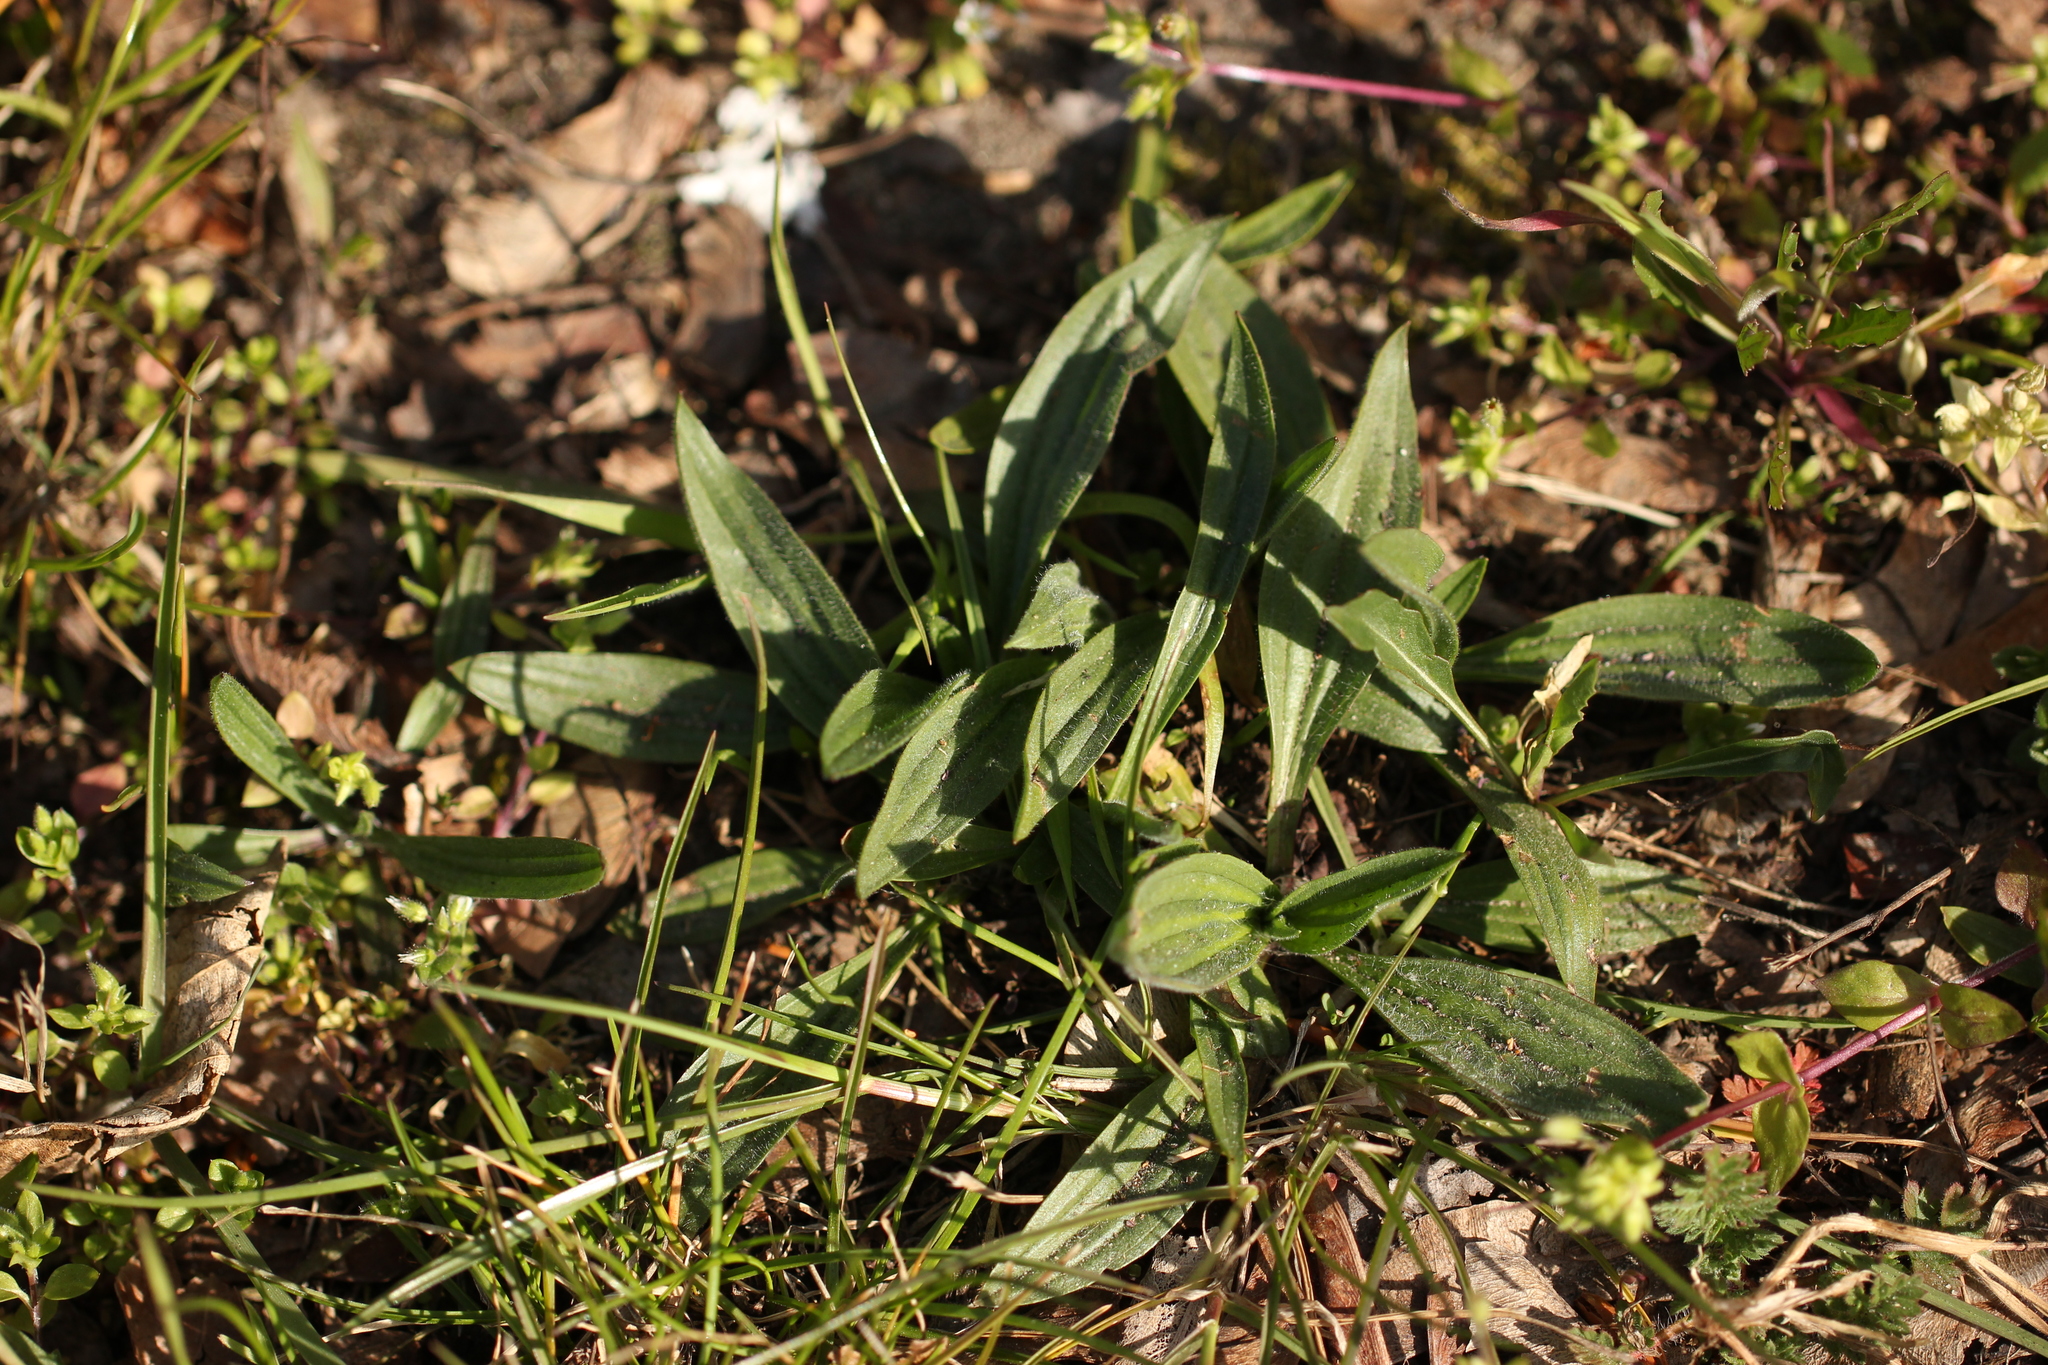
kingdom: Plantae
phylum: Tracheophyta
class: Magnoliopsida
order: Lamiales
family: Plantaginaceae
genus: Plantago
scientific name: Plantago lanceolata
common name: Ribwort plantain
